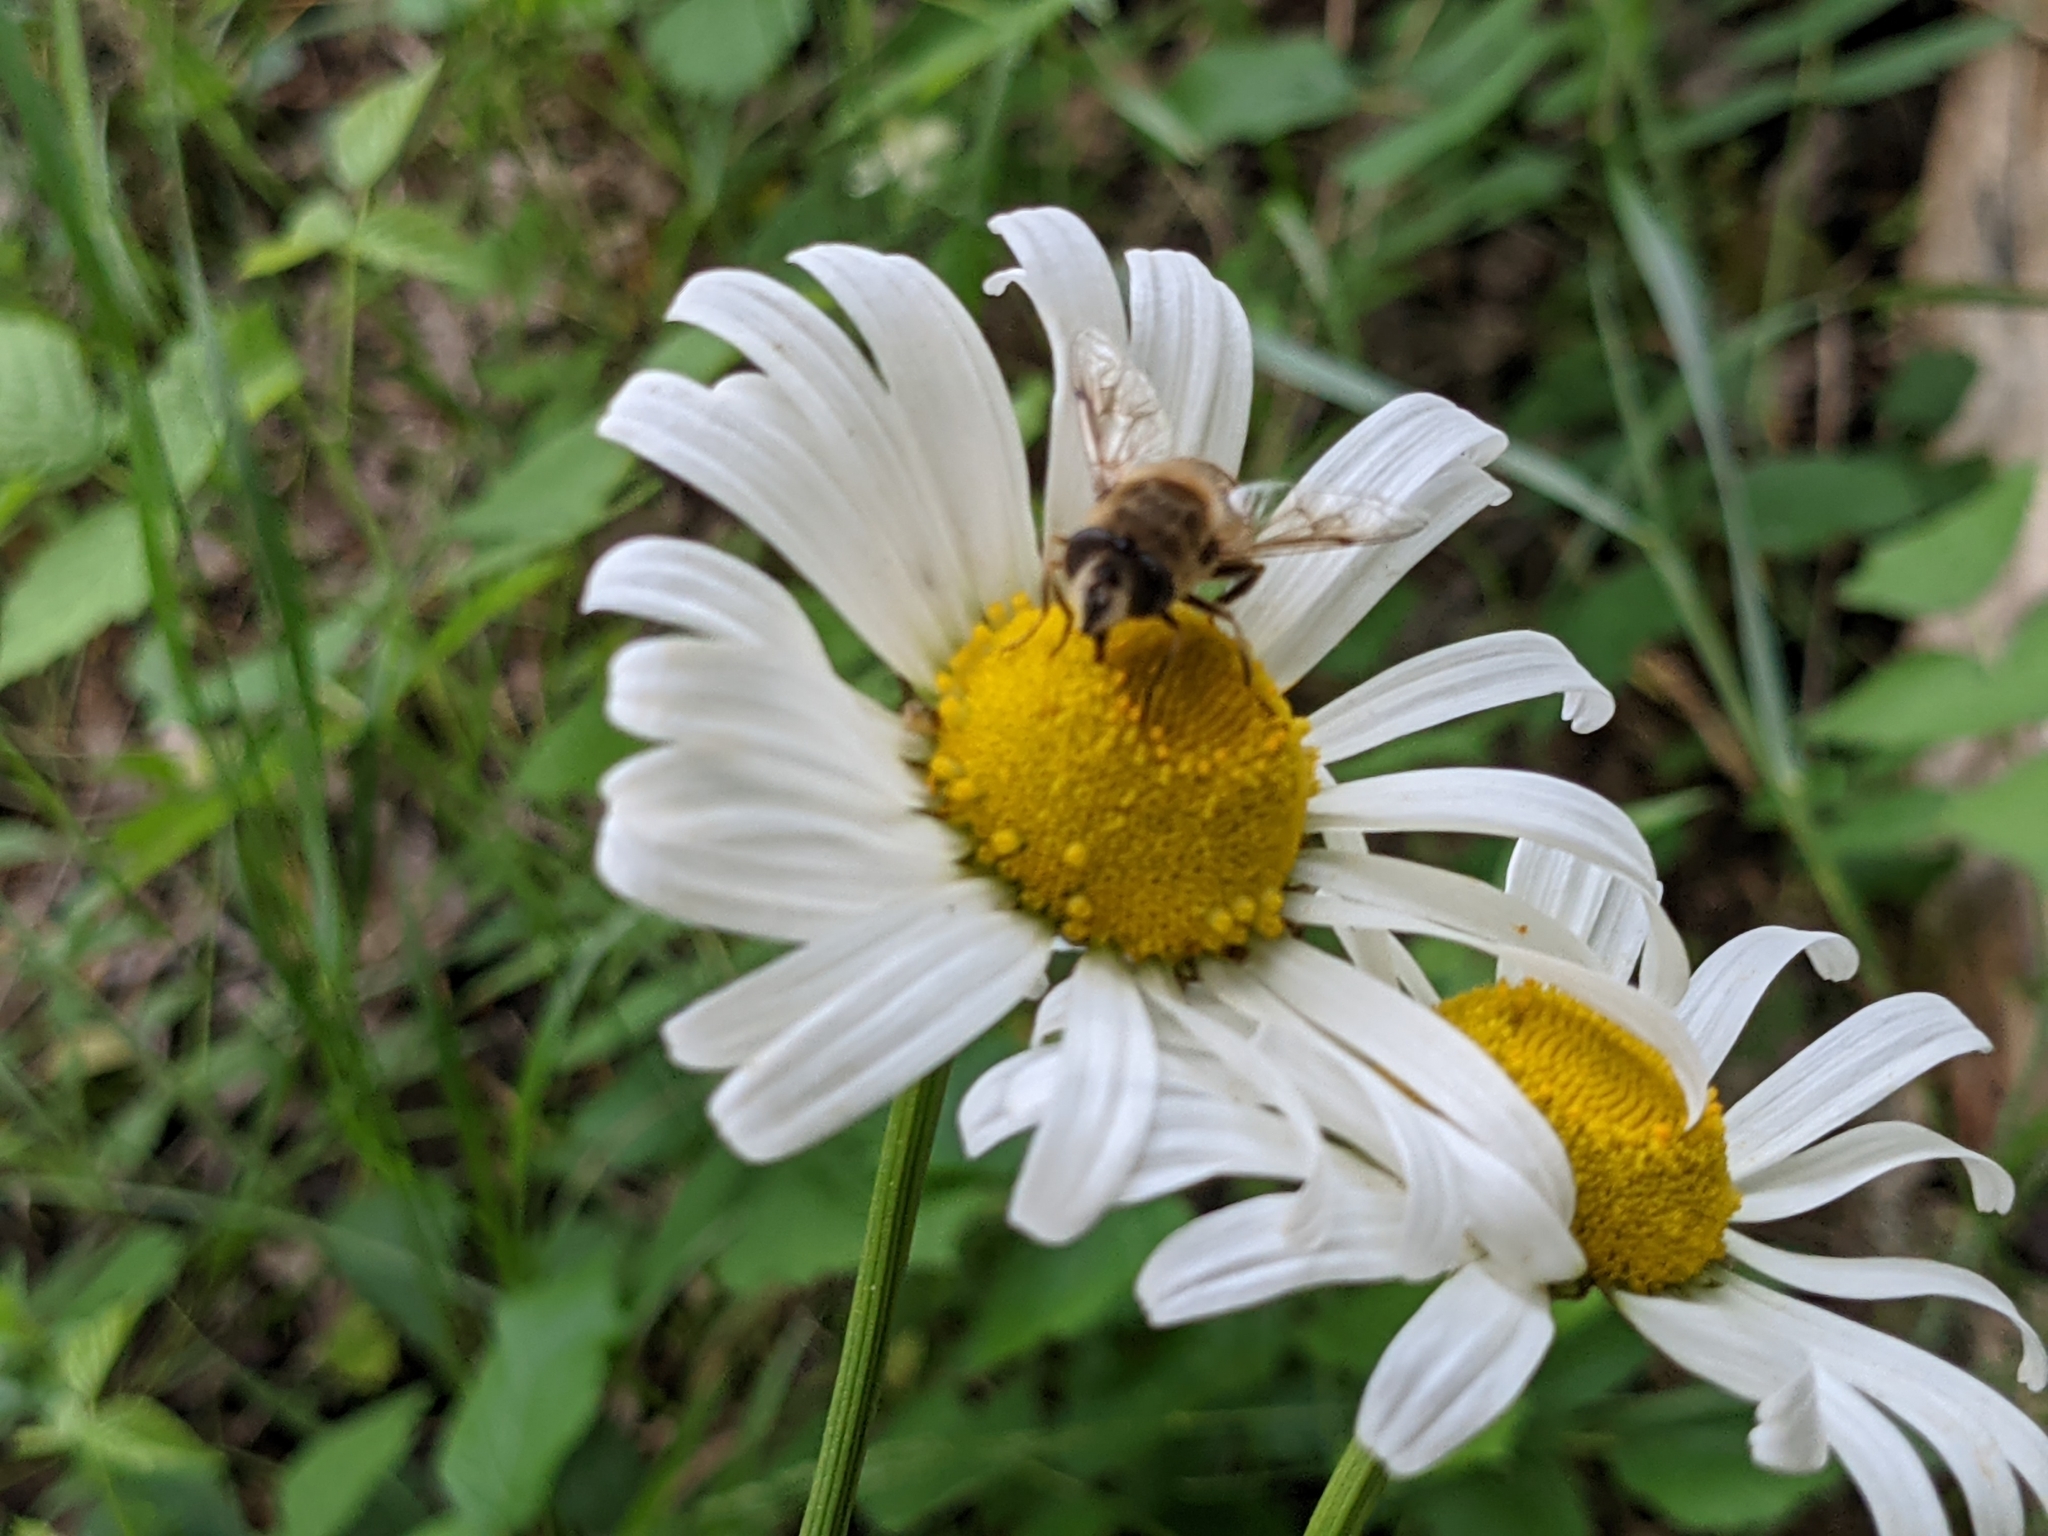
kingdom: Animalia
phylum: Arthropoda
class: Insecta
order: Diptera
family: Syrphidae
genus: Eristalis
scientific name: Eristalis tenax
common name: Drone fly
